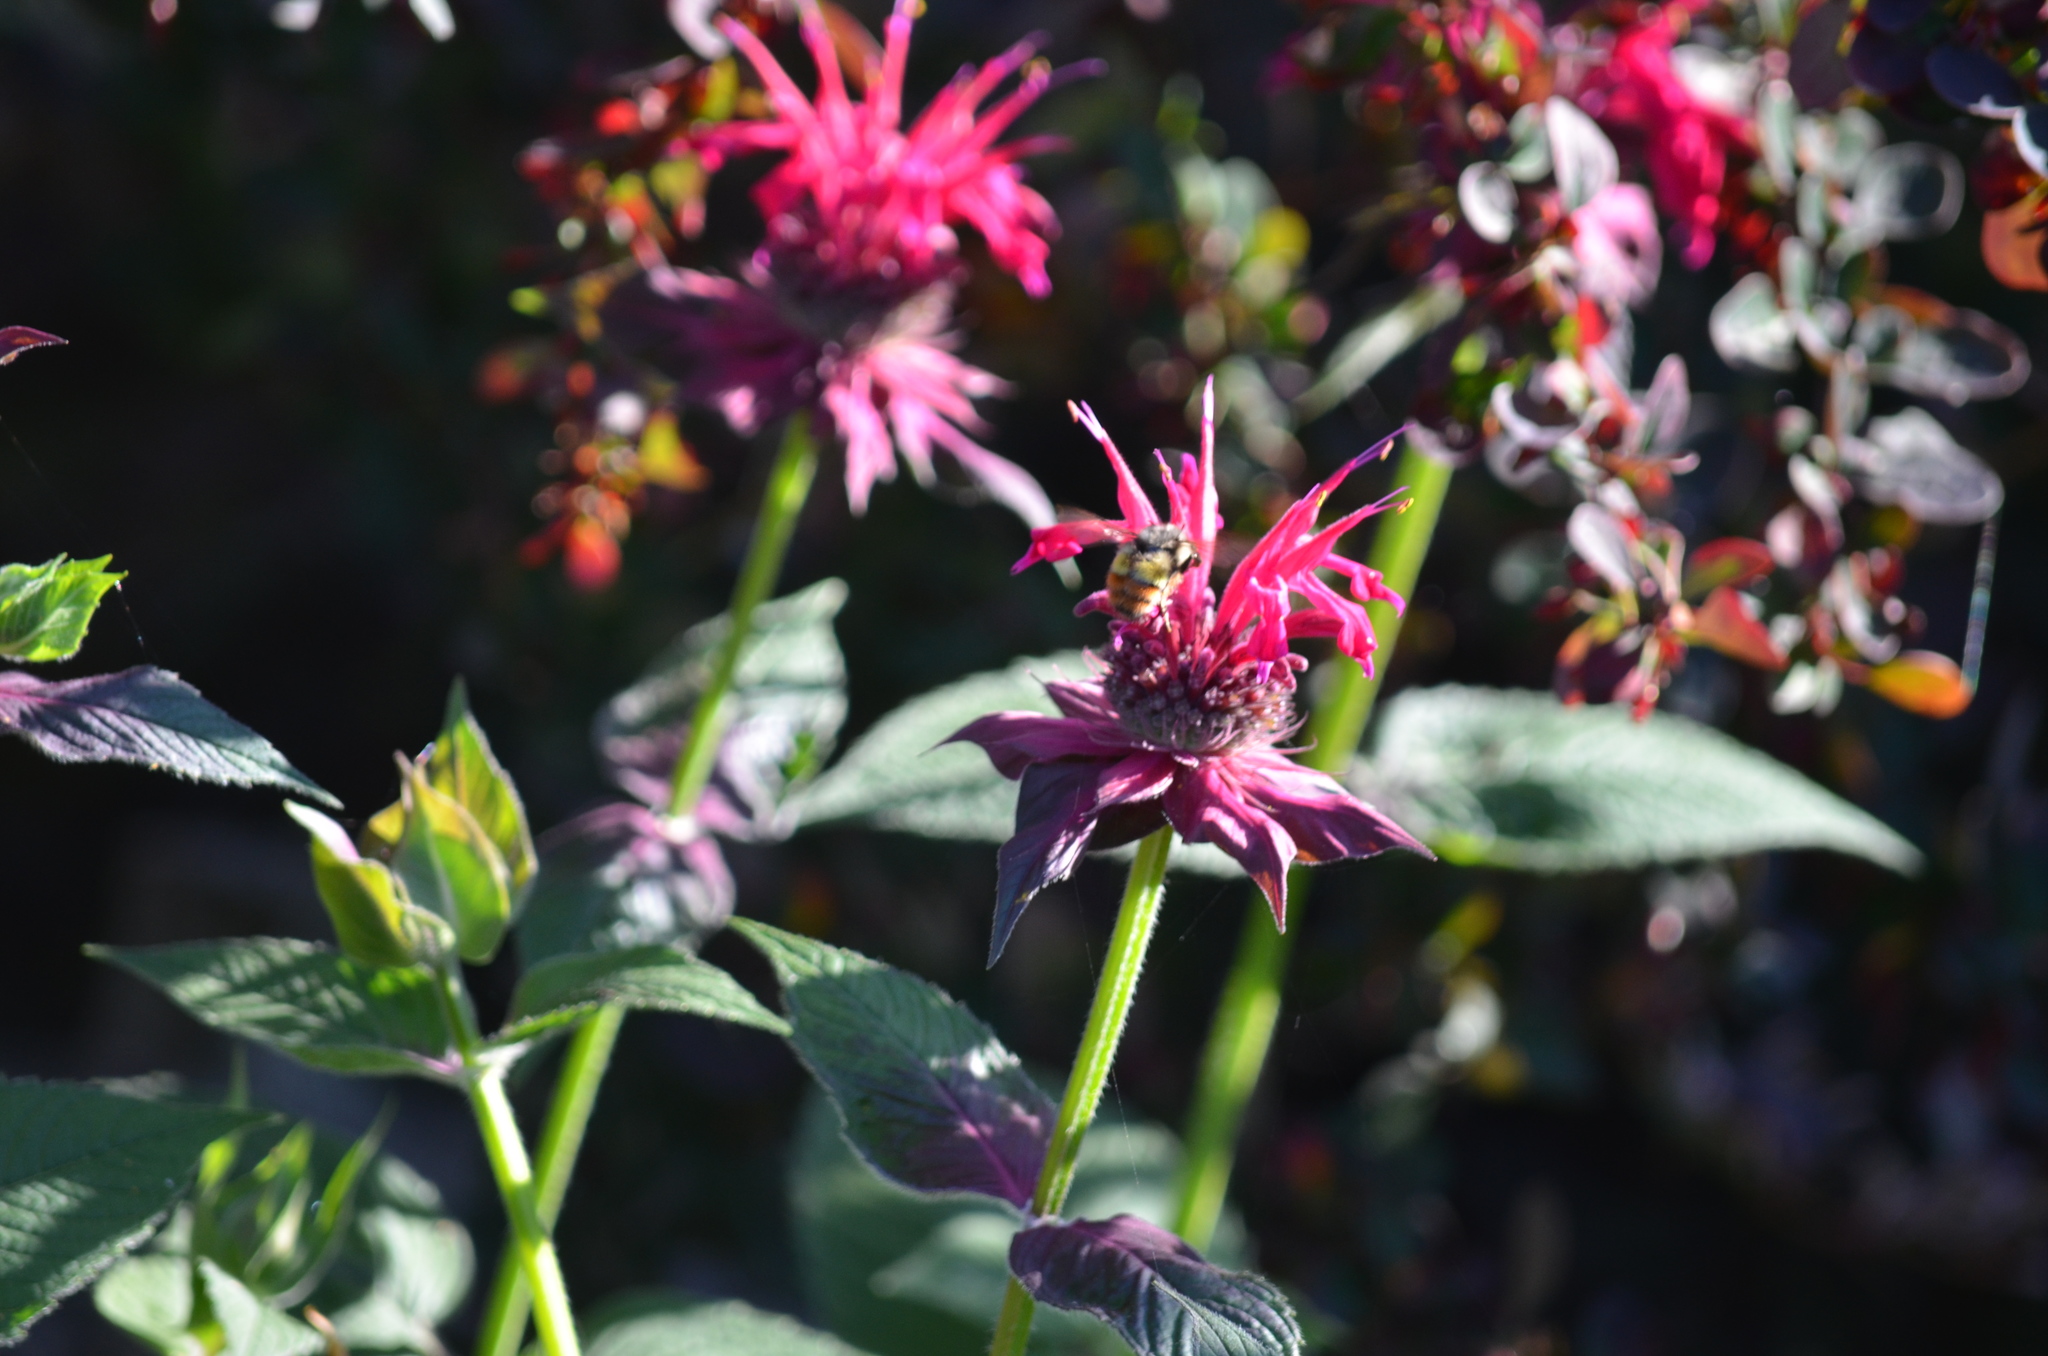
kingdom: Animalia
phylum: Arthropoda
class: Insecta
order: Hymenoptera
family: Apidae
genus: Bombus
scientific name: Bombus flavifrons
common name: Yellow head bumble bee
